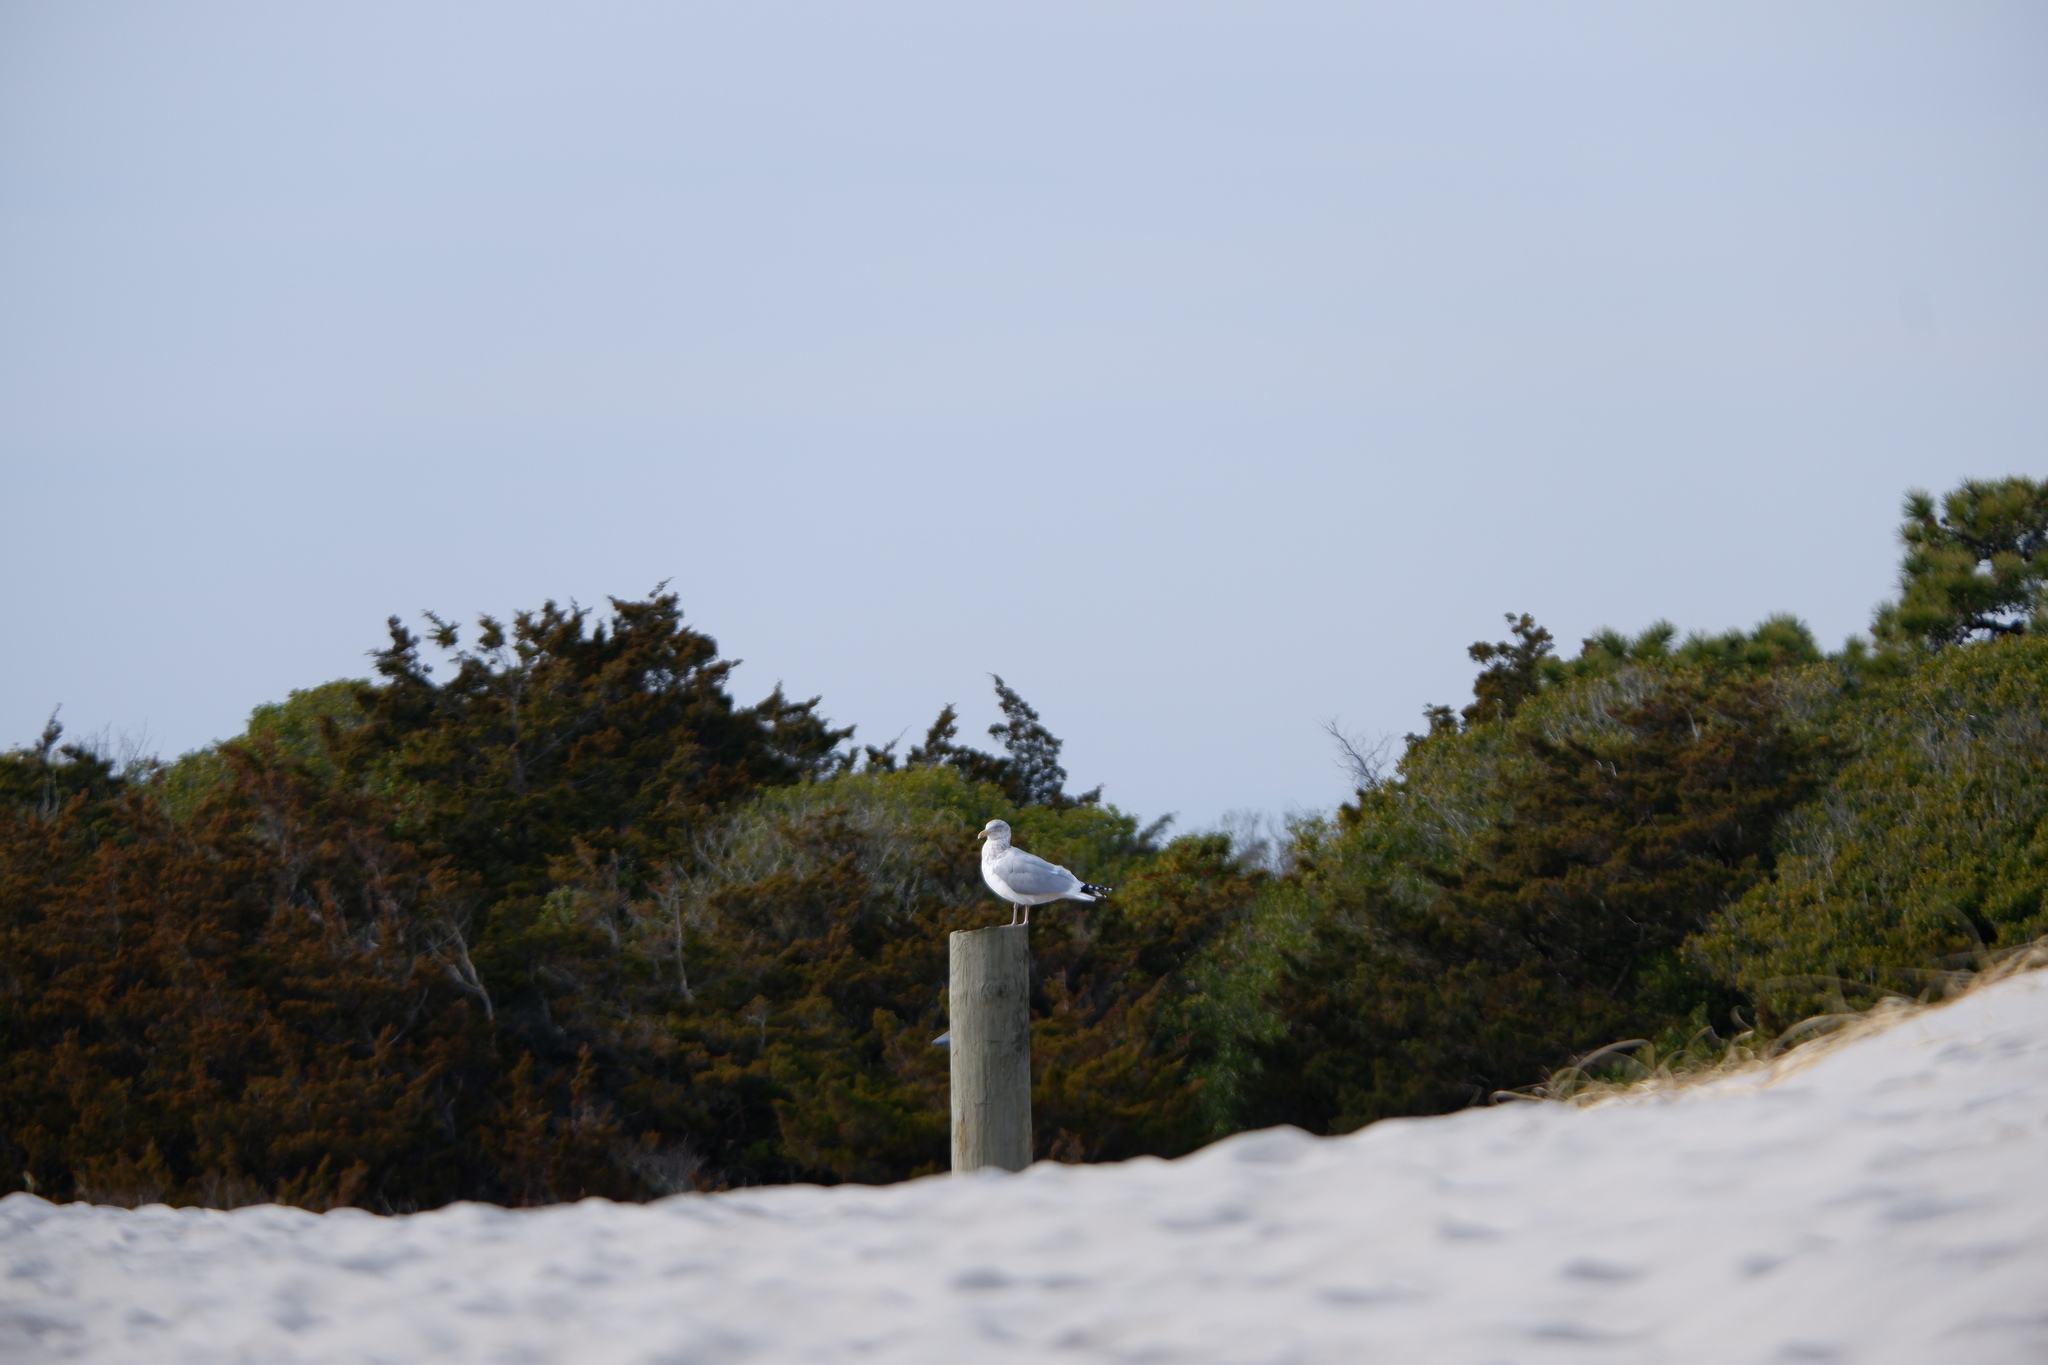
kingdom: Animalia
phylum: Chordata
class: Aves
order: Charadriiformes
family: Laridae
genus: Larus
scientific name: Larus smithsonianus
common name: American herring gull
